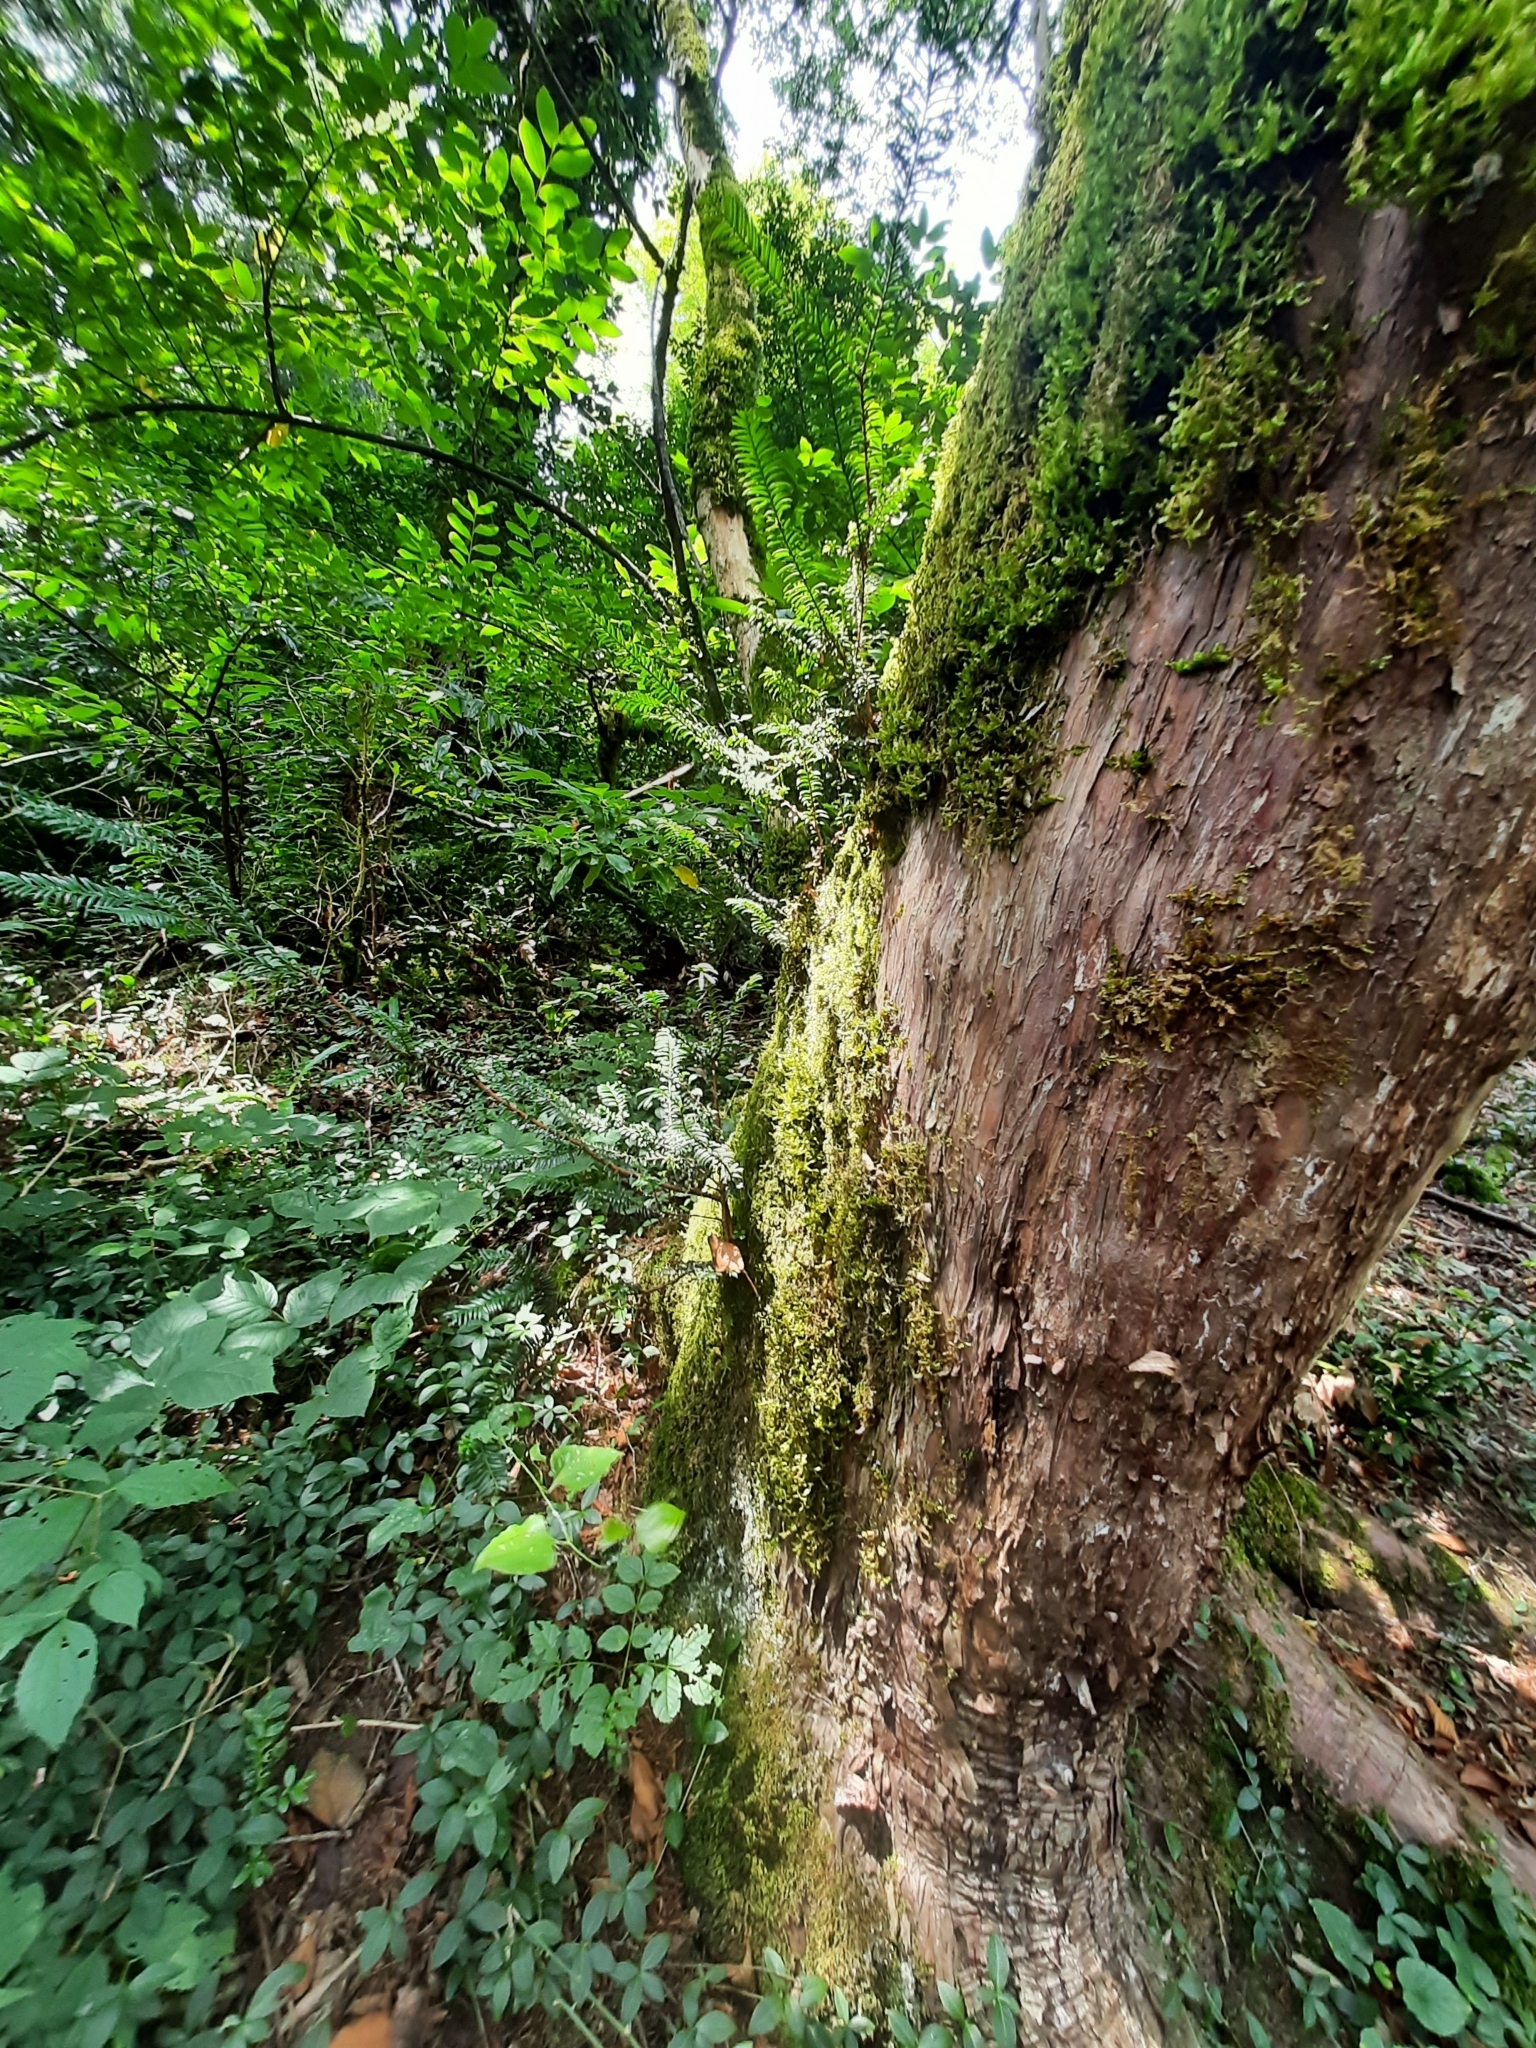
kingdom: Plantae
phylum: Tracheophyta
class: Pinopsida
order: Pinales
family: Taxaceae
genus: Taxus
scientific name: Taxus baccata
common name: Yew
